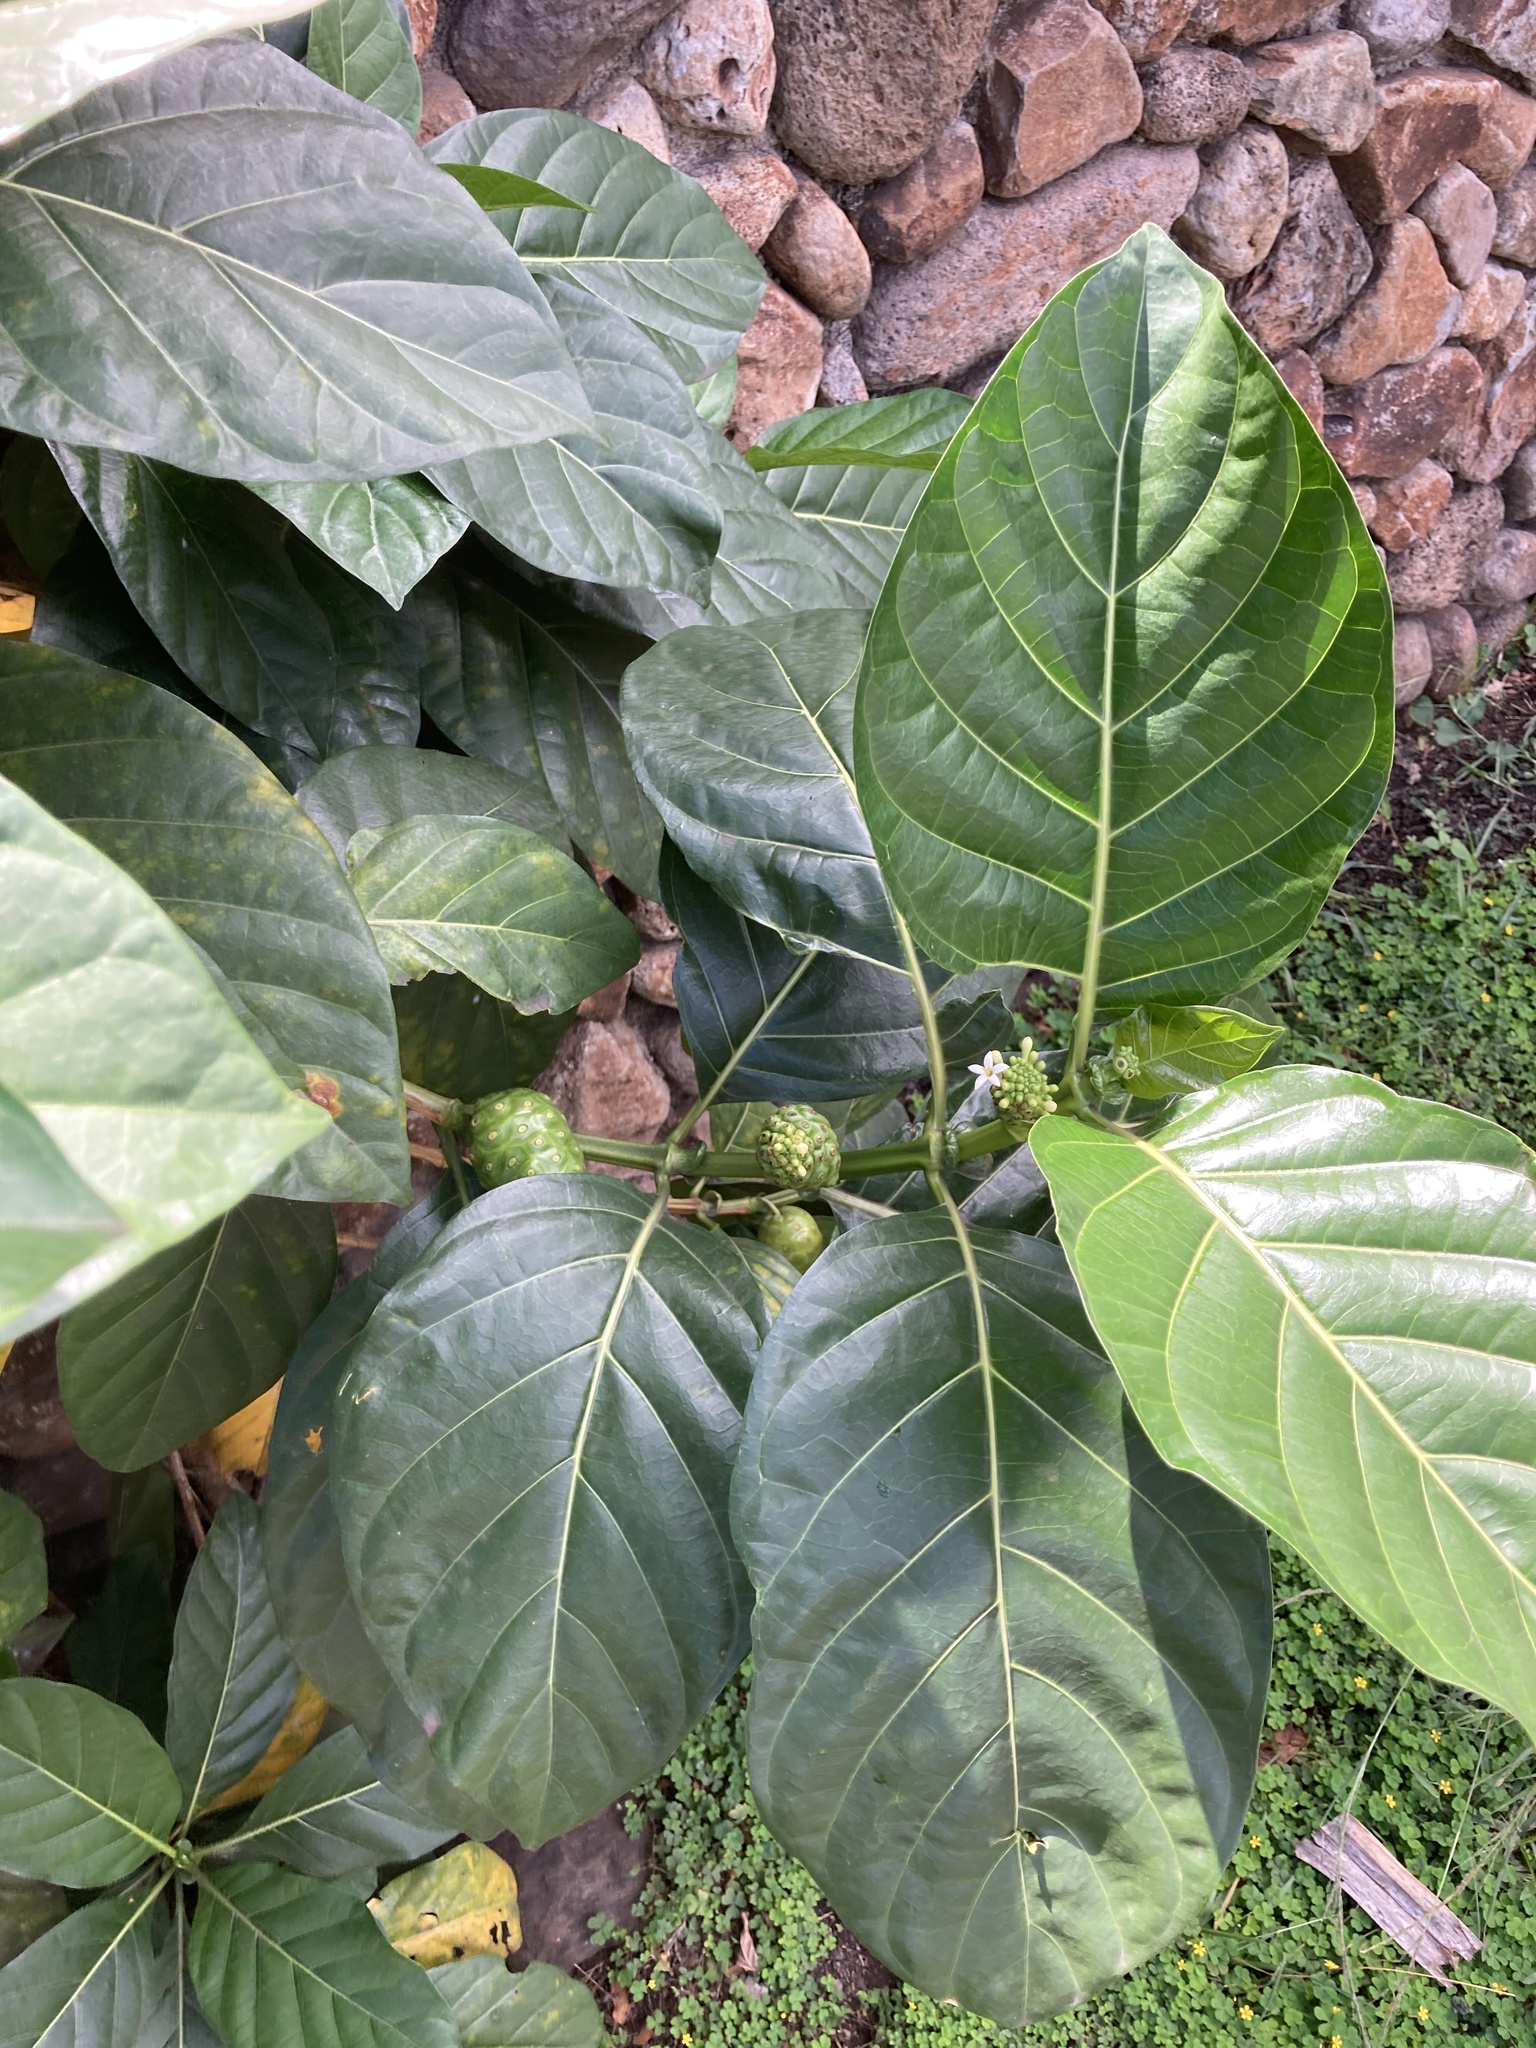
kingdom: Plantae
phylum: Tracheophyta
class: Magnoliopsida
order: Gentianales
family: Rubiaceae
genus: Morinda
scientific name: Morinda citrifolia
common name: Indian-mulberry
